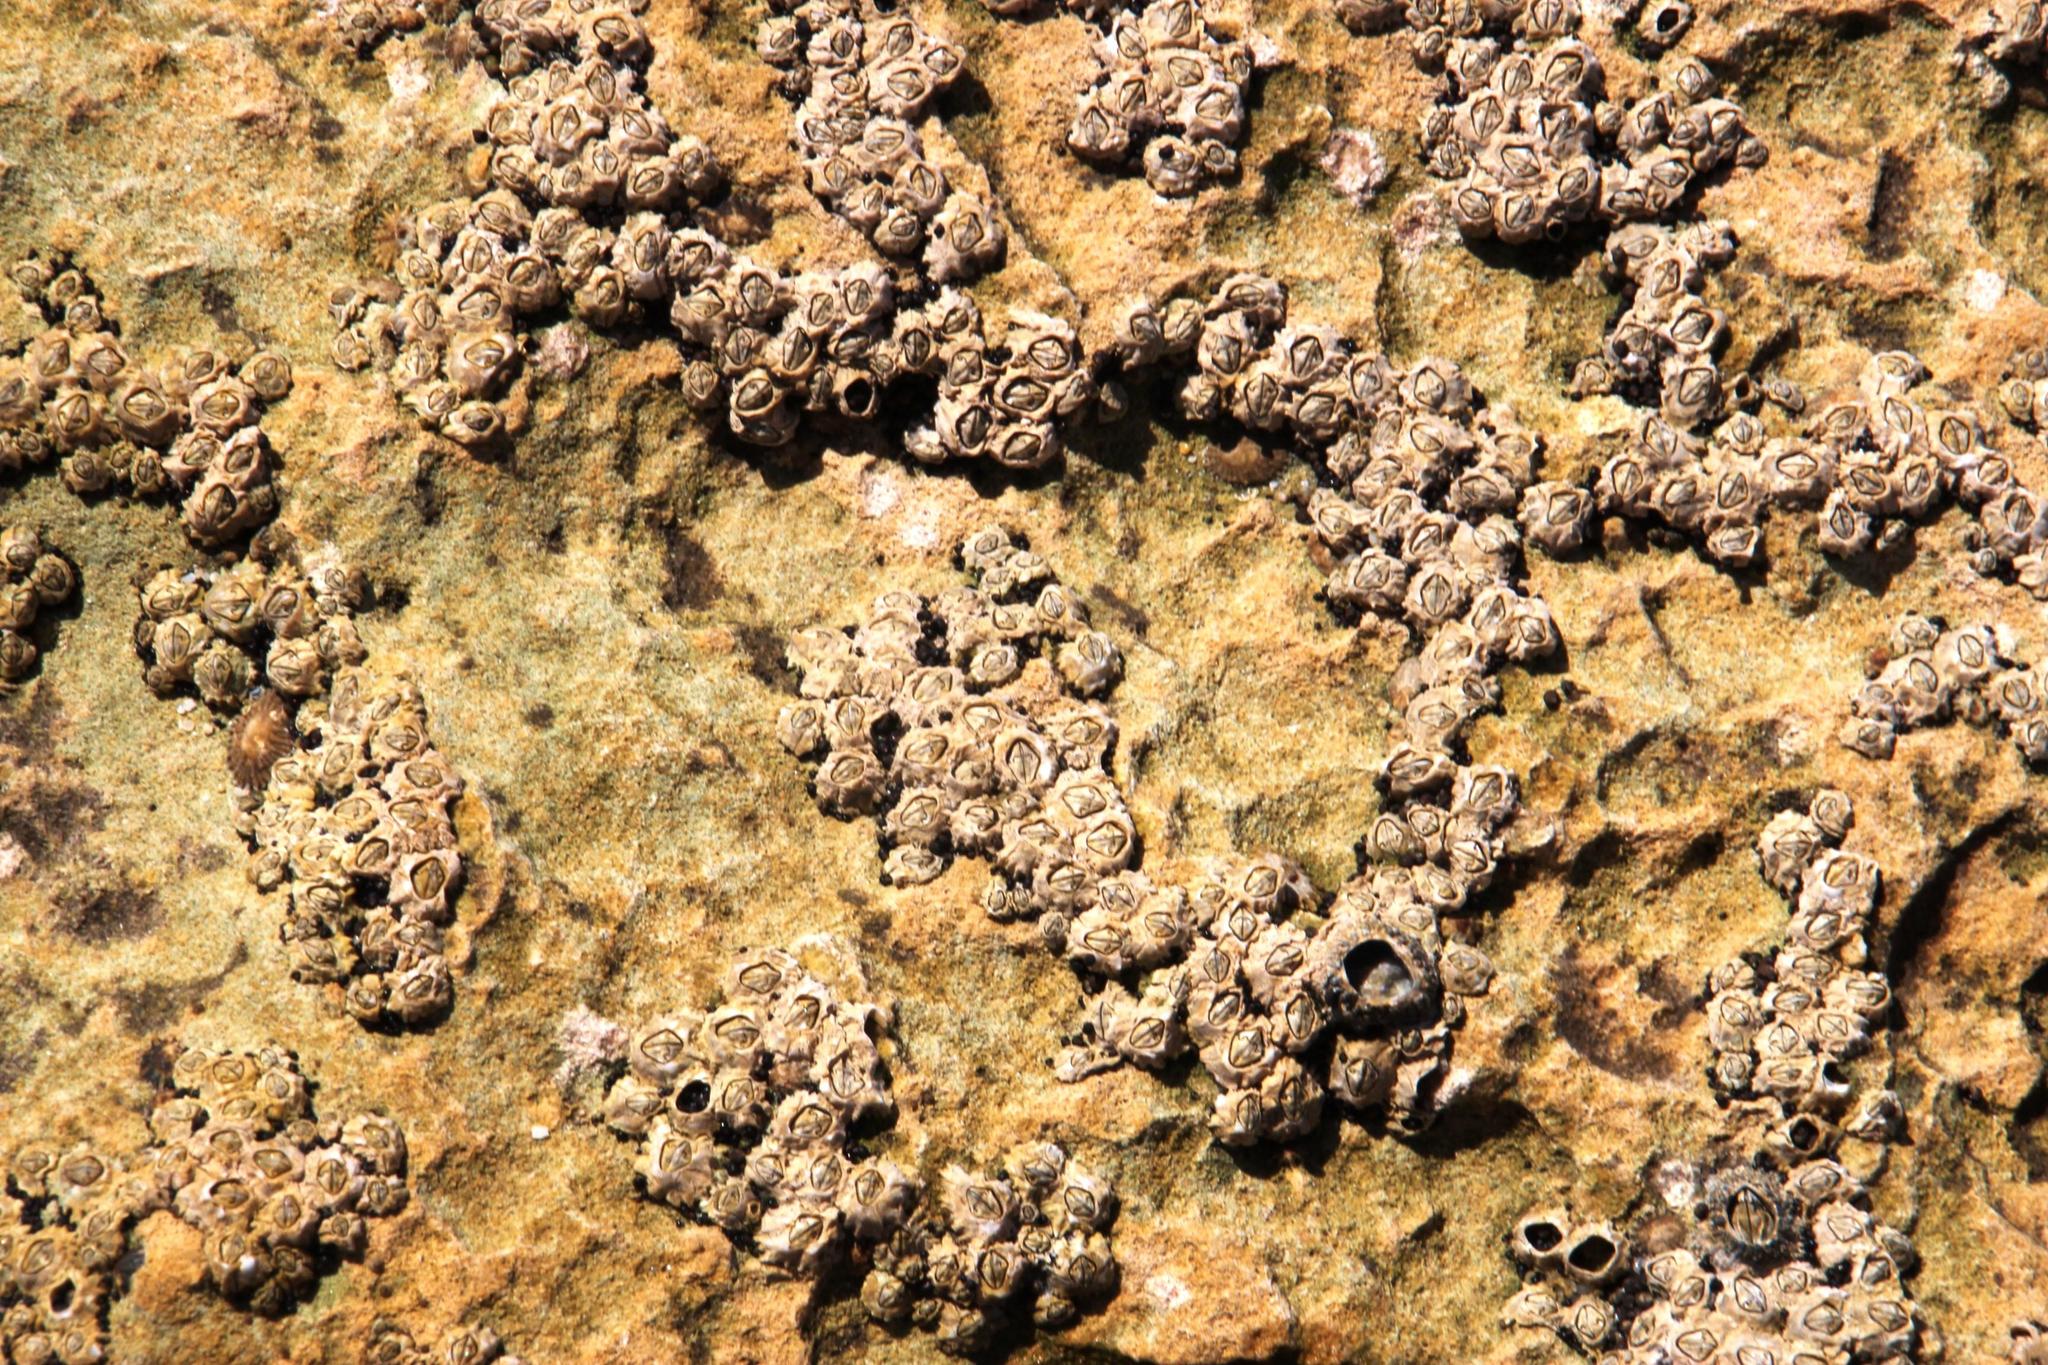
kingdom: Animalia
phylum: Arthropoda
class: Maxillopoda
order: Sessilia
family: Chthamalidae
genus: Chthamalus
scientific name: Chthamalus dentatus
